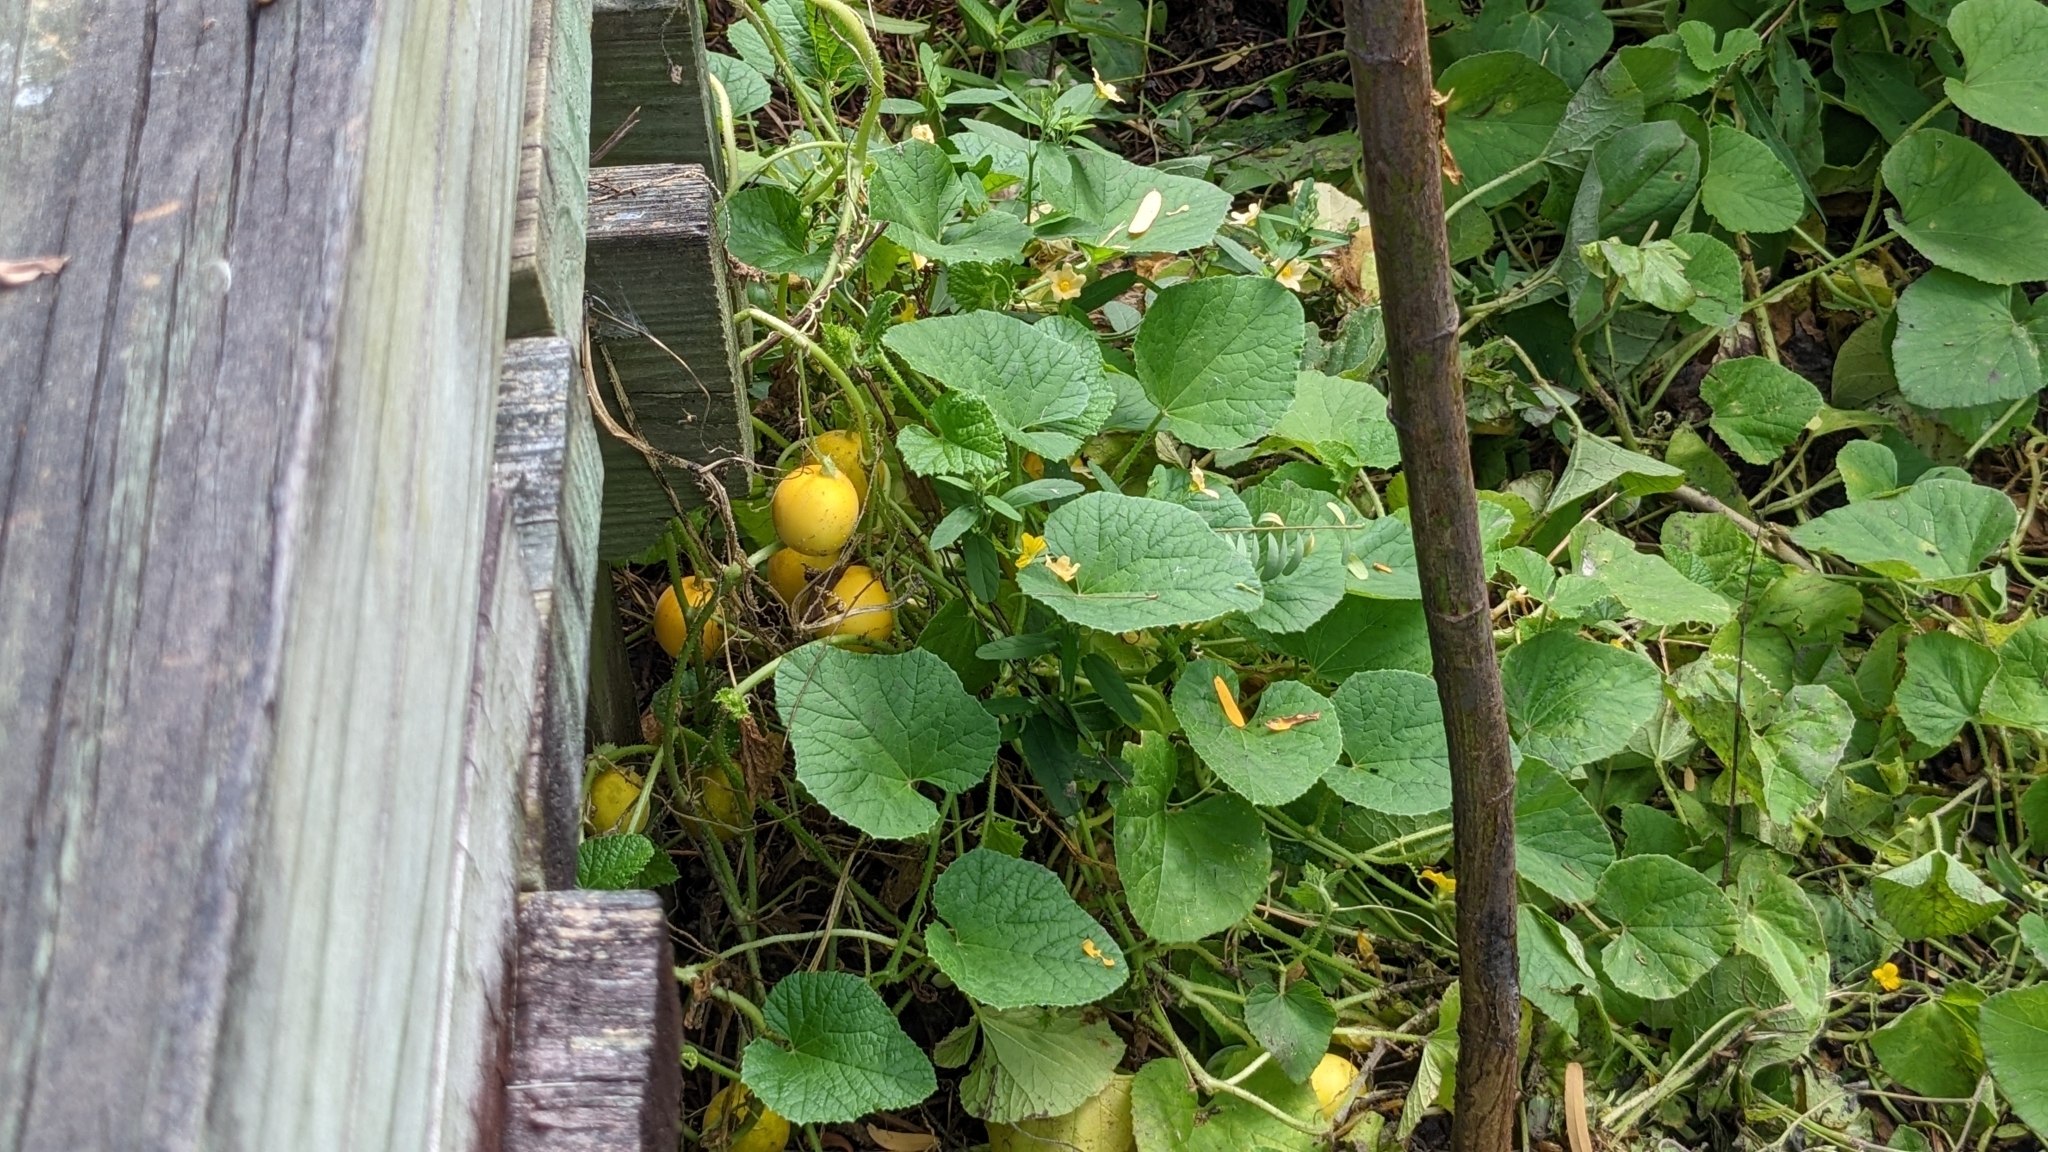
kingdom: Plantae
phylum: Tracheophyta
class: Magnoliopsida
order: Cucurbitales
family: Cucurbitaceae
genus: Cucumis
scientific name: Cucumis melo
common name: Melon
